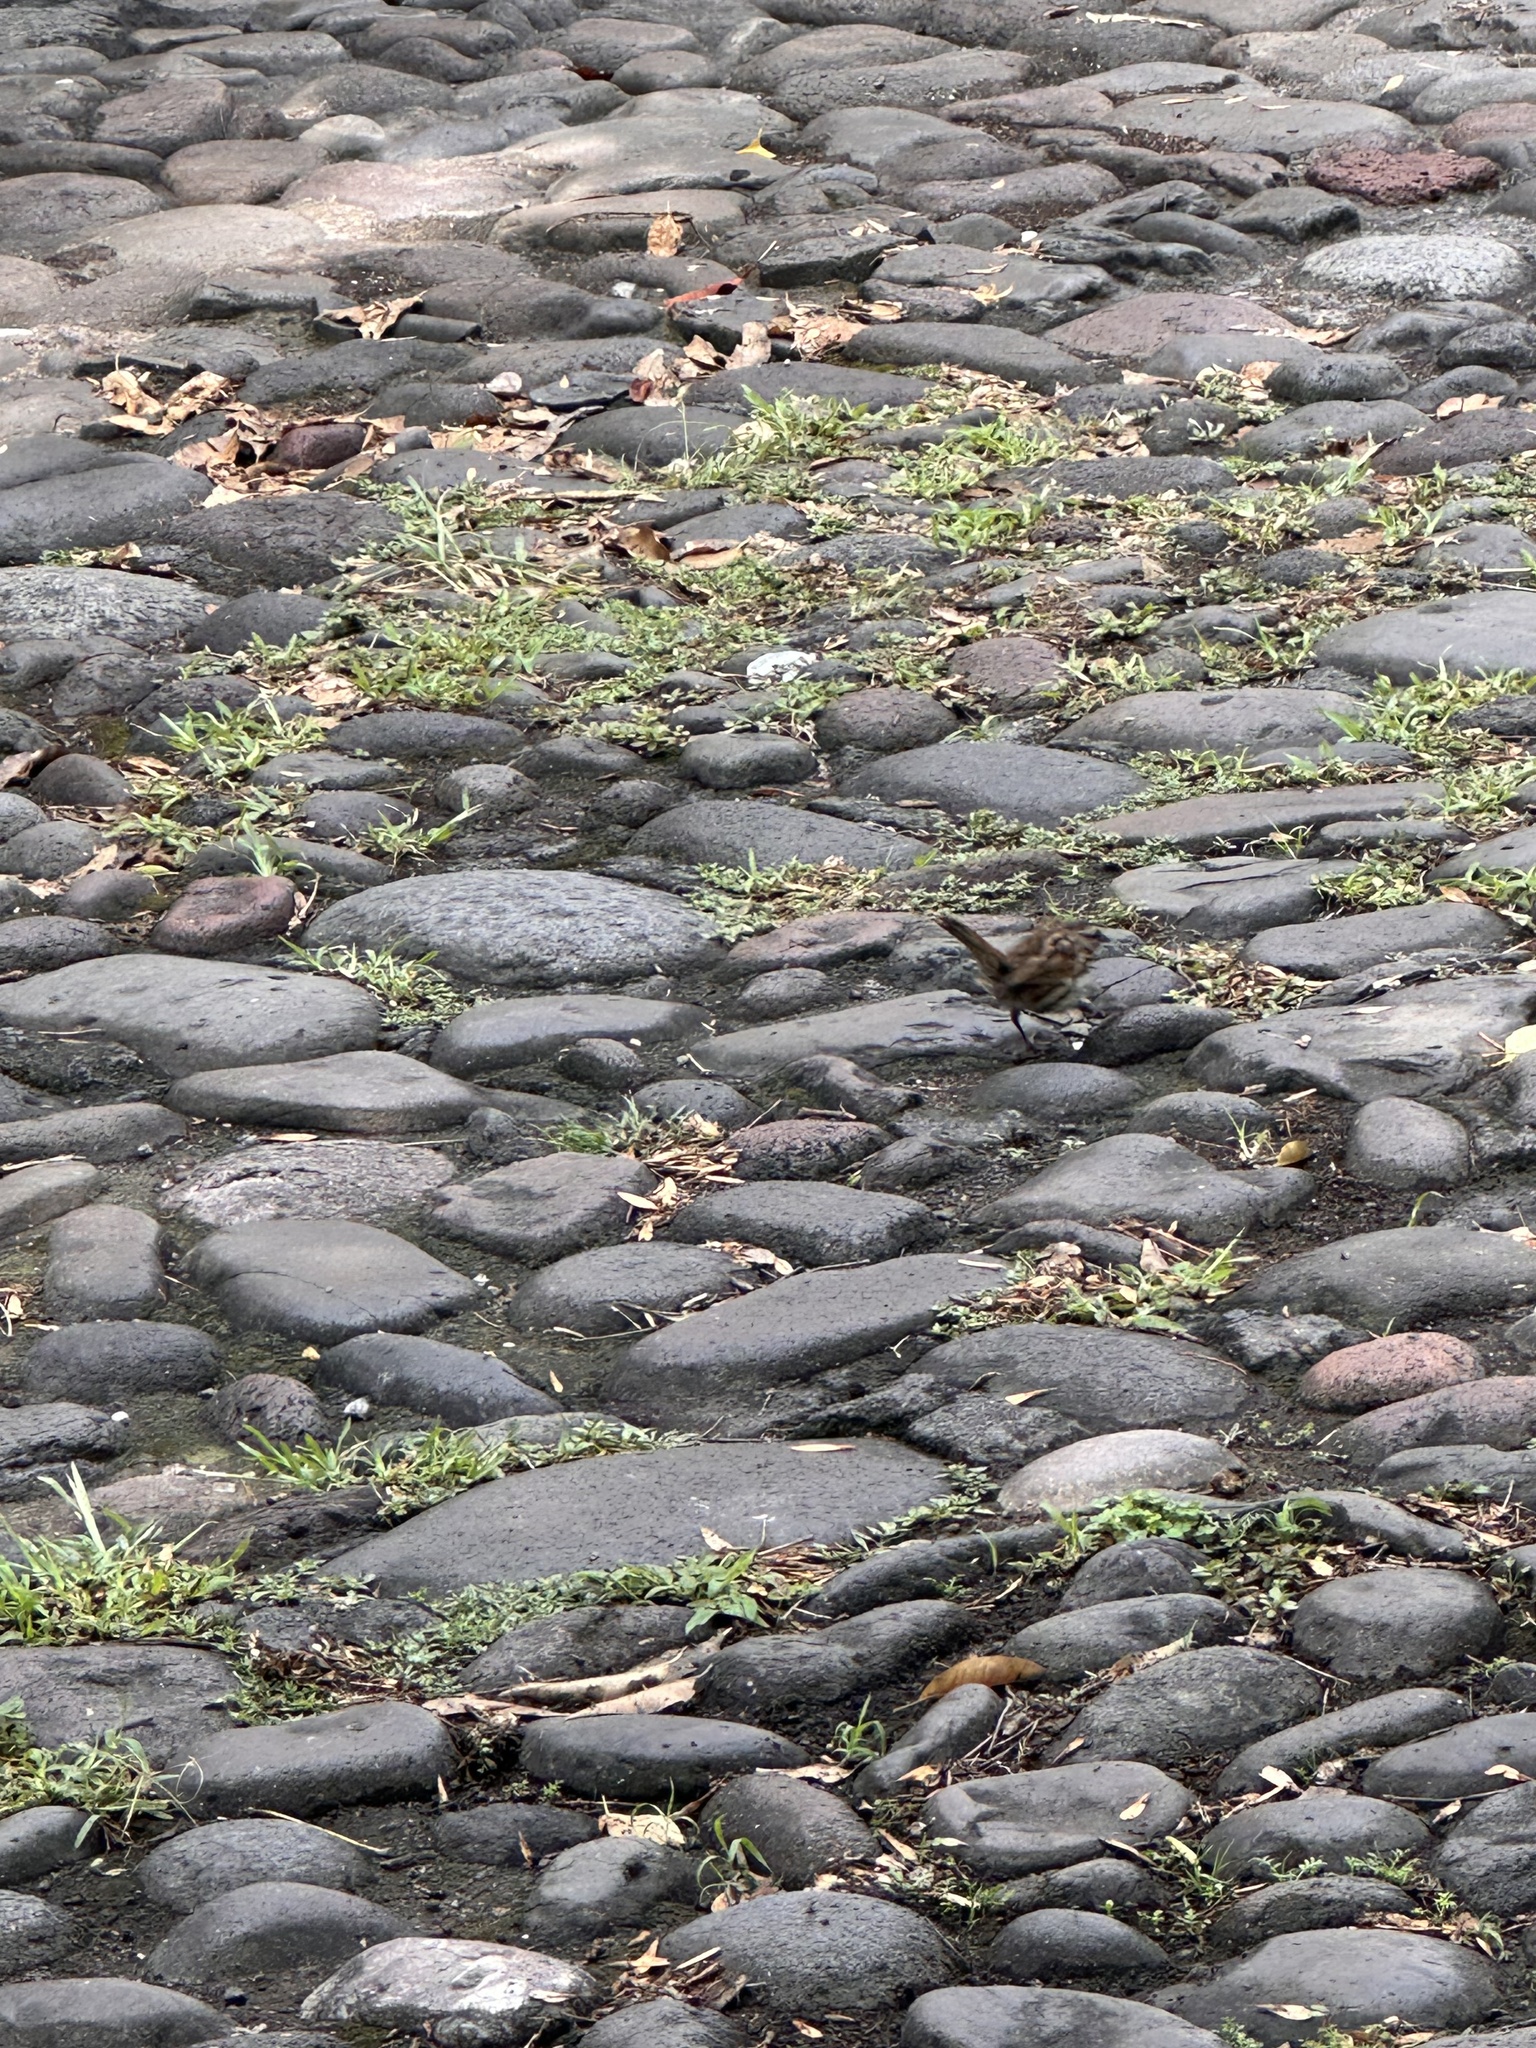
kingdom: Animalia
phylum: Chordata
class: Aves
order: Passeriformes
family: Passerellidae
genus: Melospiza
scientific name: Melospiza melodia
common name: Song sparrow
